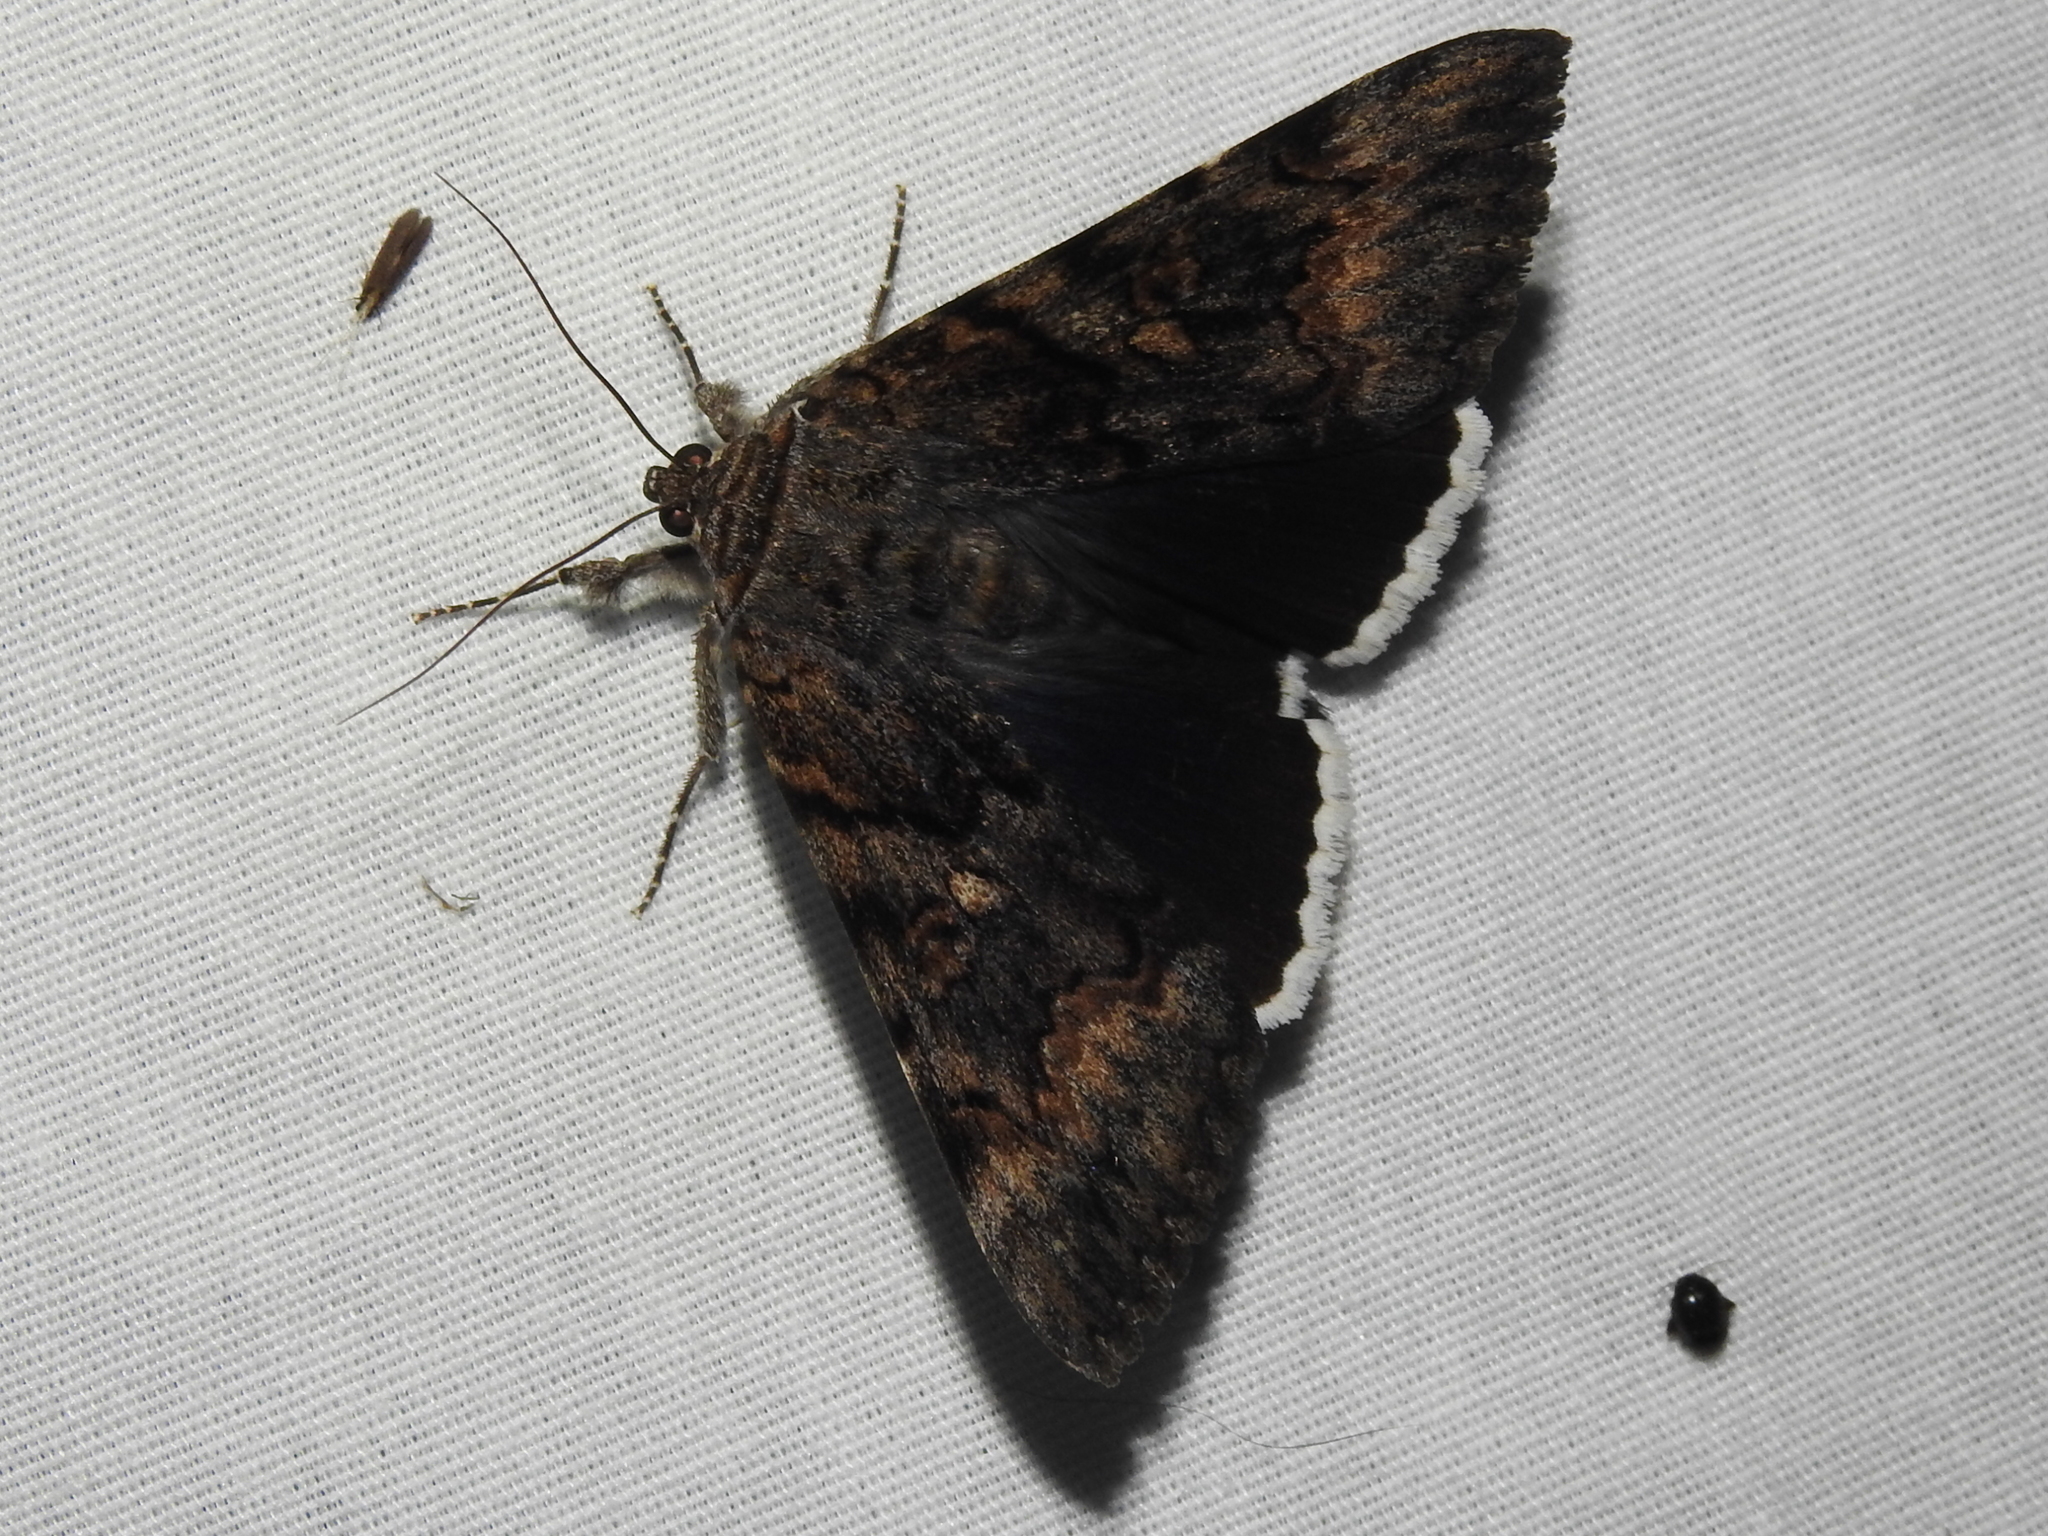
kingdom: Animalia
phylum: Arthropoda
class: Insecta
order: Lepidoptera
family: Erebidae
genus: Catocala
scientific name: Catocala epione
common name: Epione underwing
